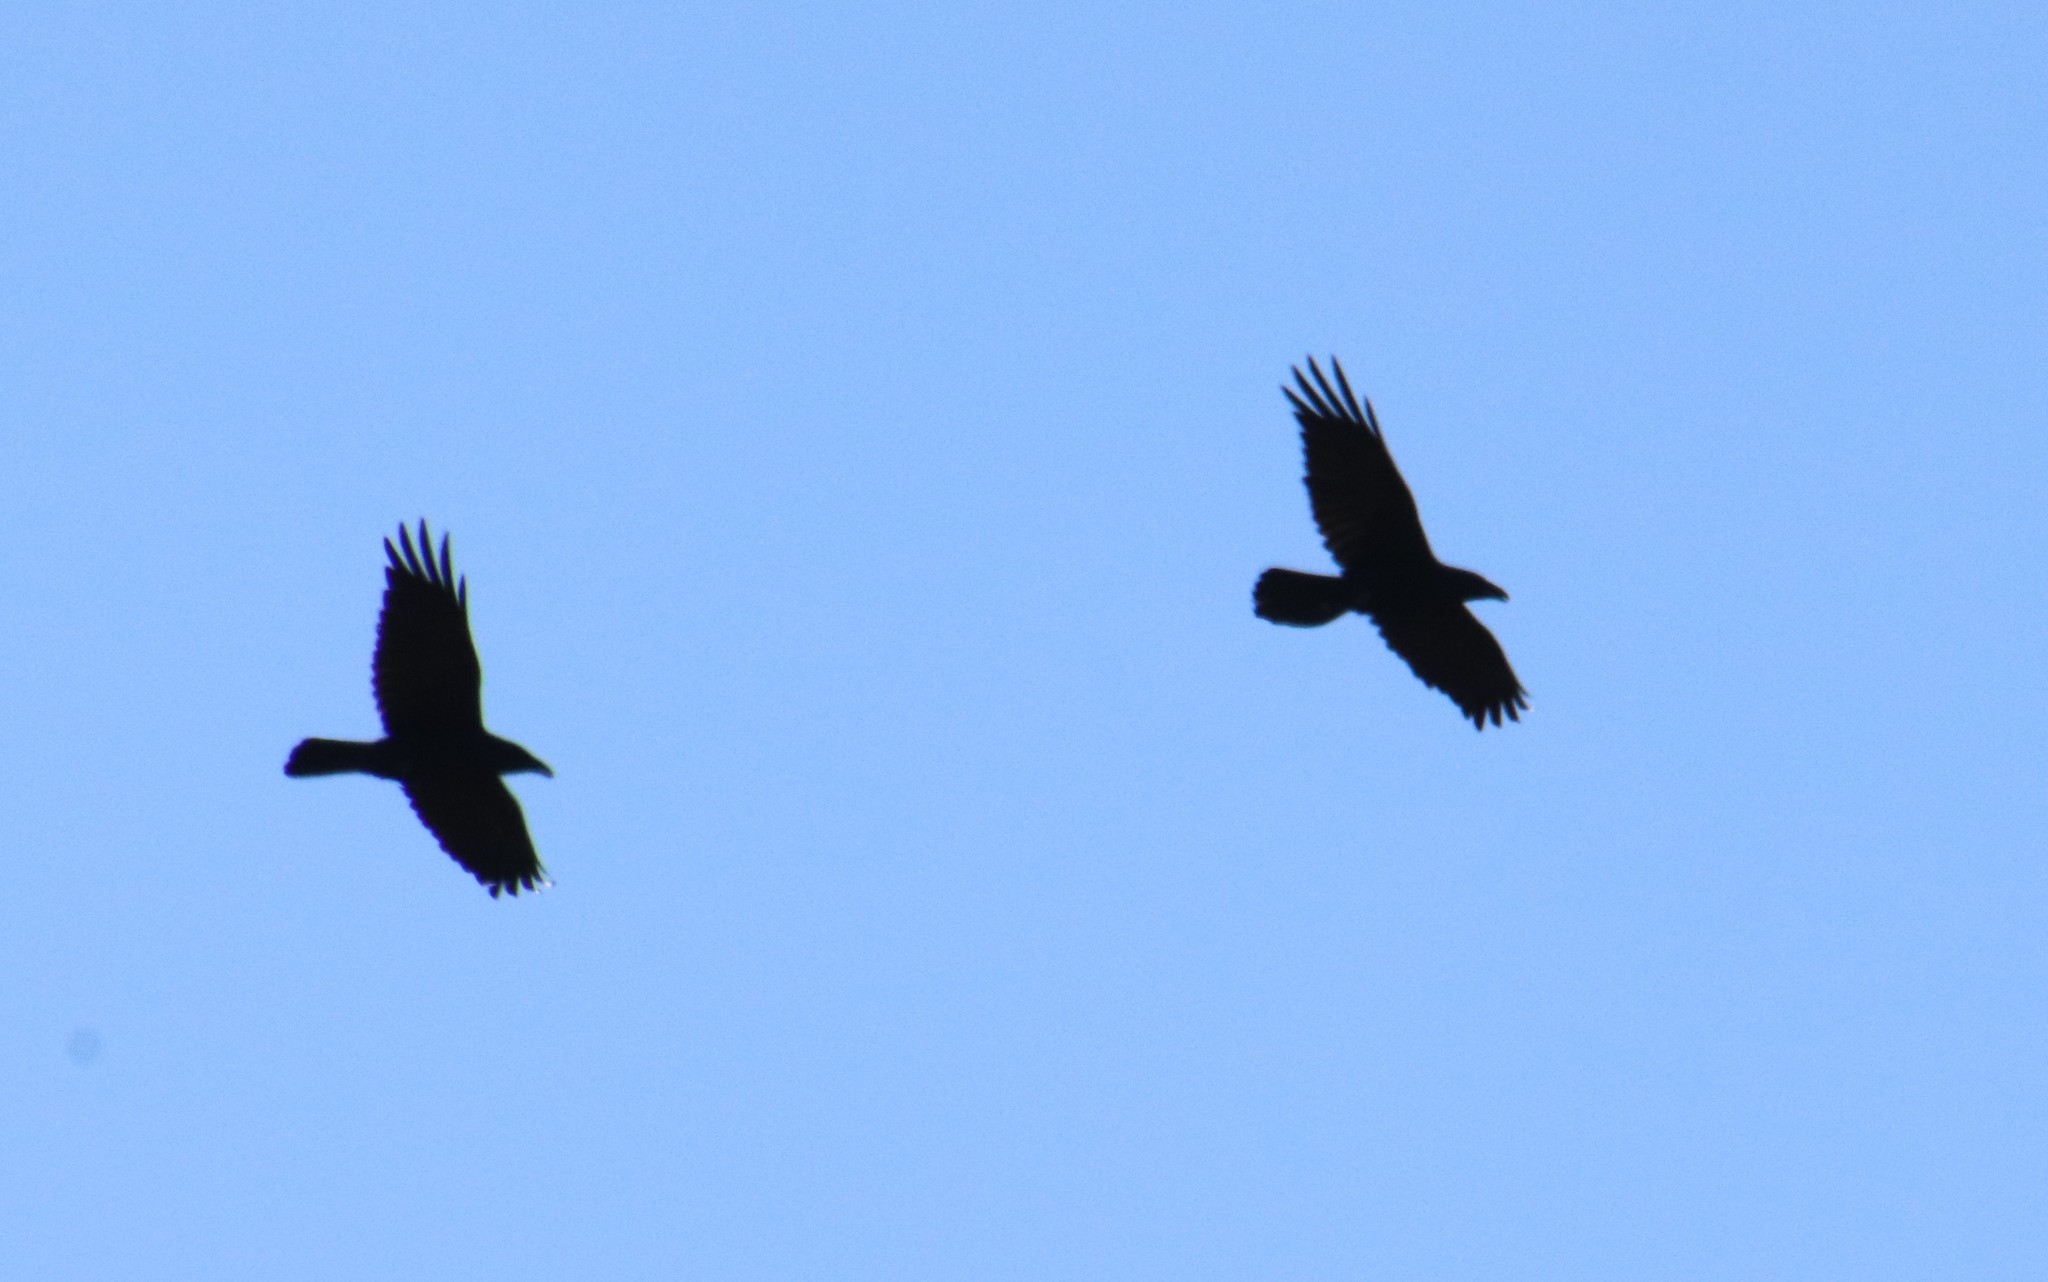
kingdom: Animalia
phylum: Chordata
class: Aves
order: Passeriformes
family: Corvidae
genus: Corvus
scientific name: Corvus corax
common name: Common raven
